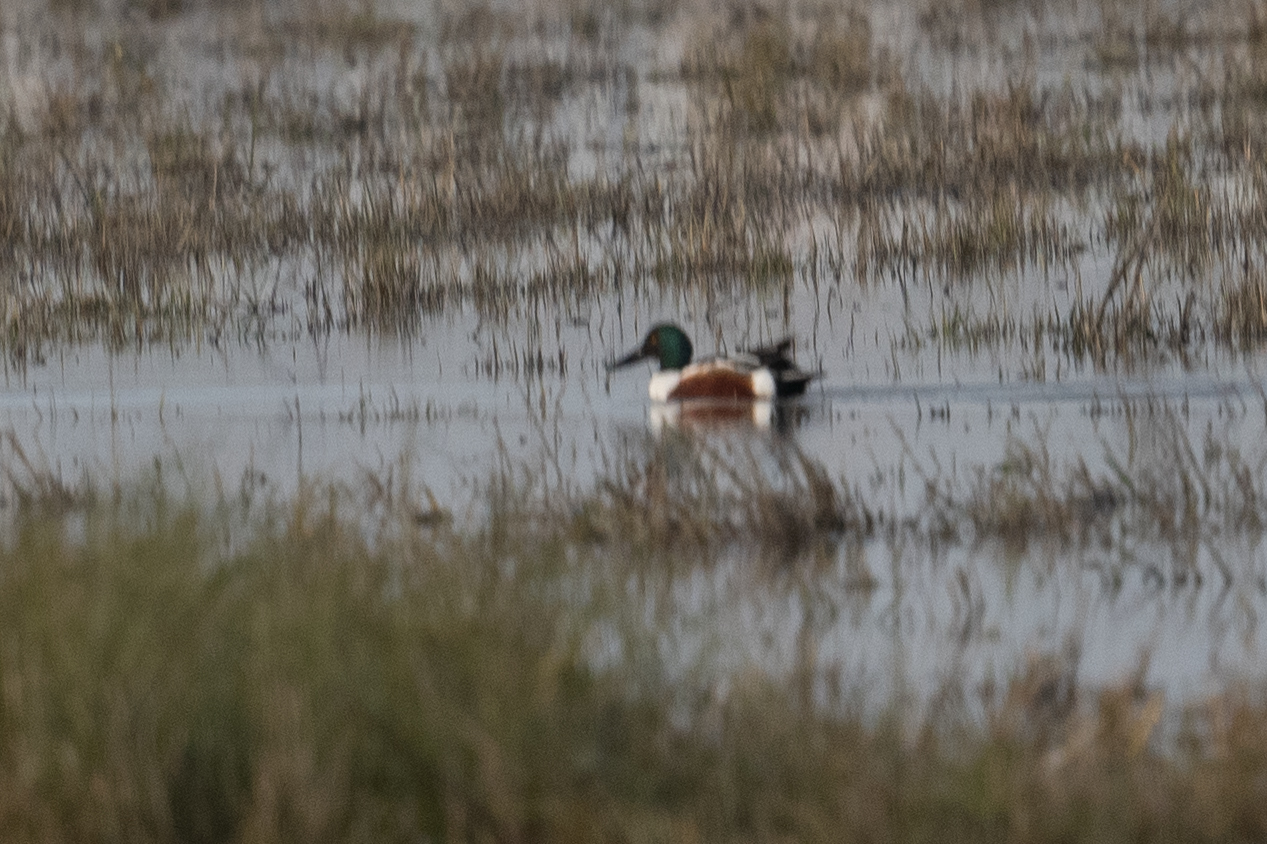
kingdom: Animalia
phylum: Chordata
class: Aves
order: Anseriformes
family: Anatidae
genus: Spatula
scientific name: Spatula clypeata
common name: Northern shoveler
